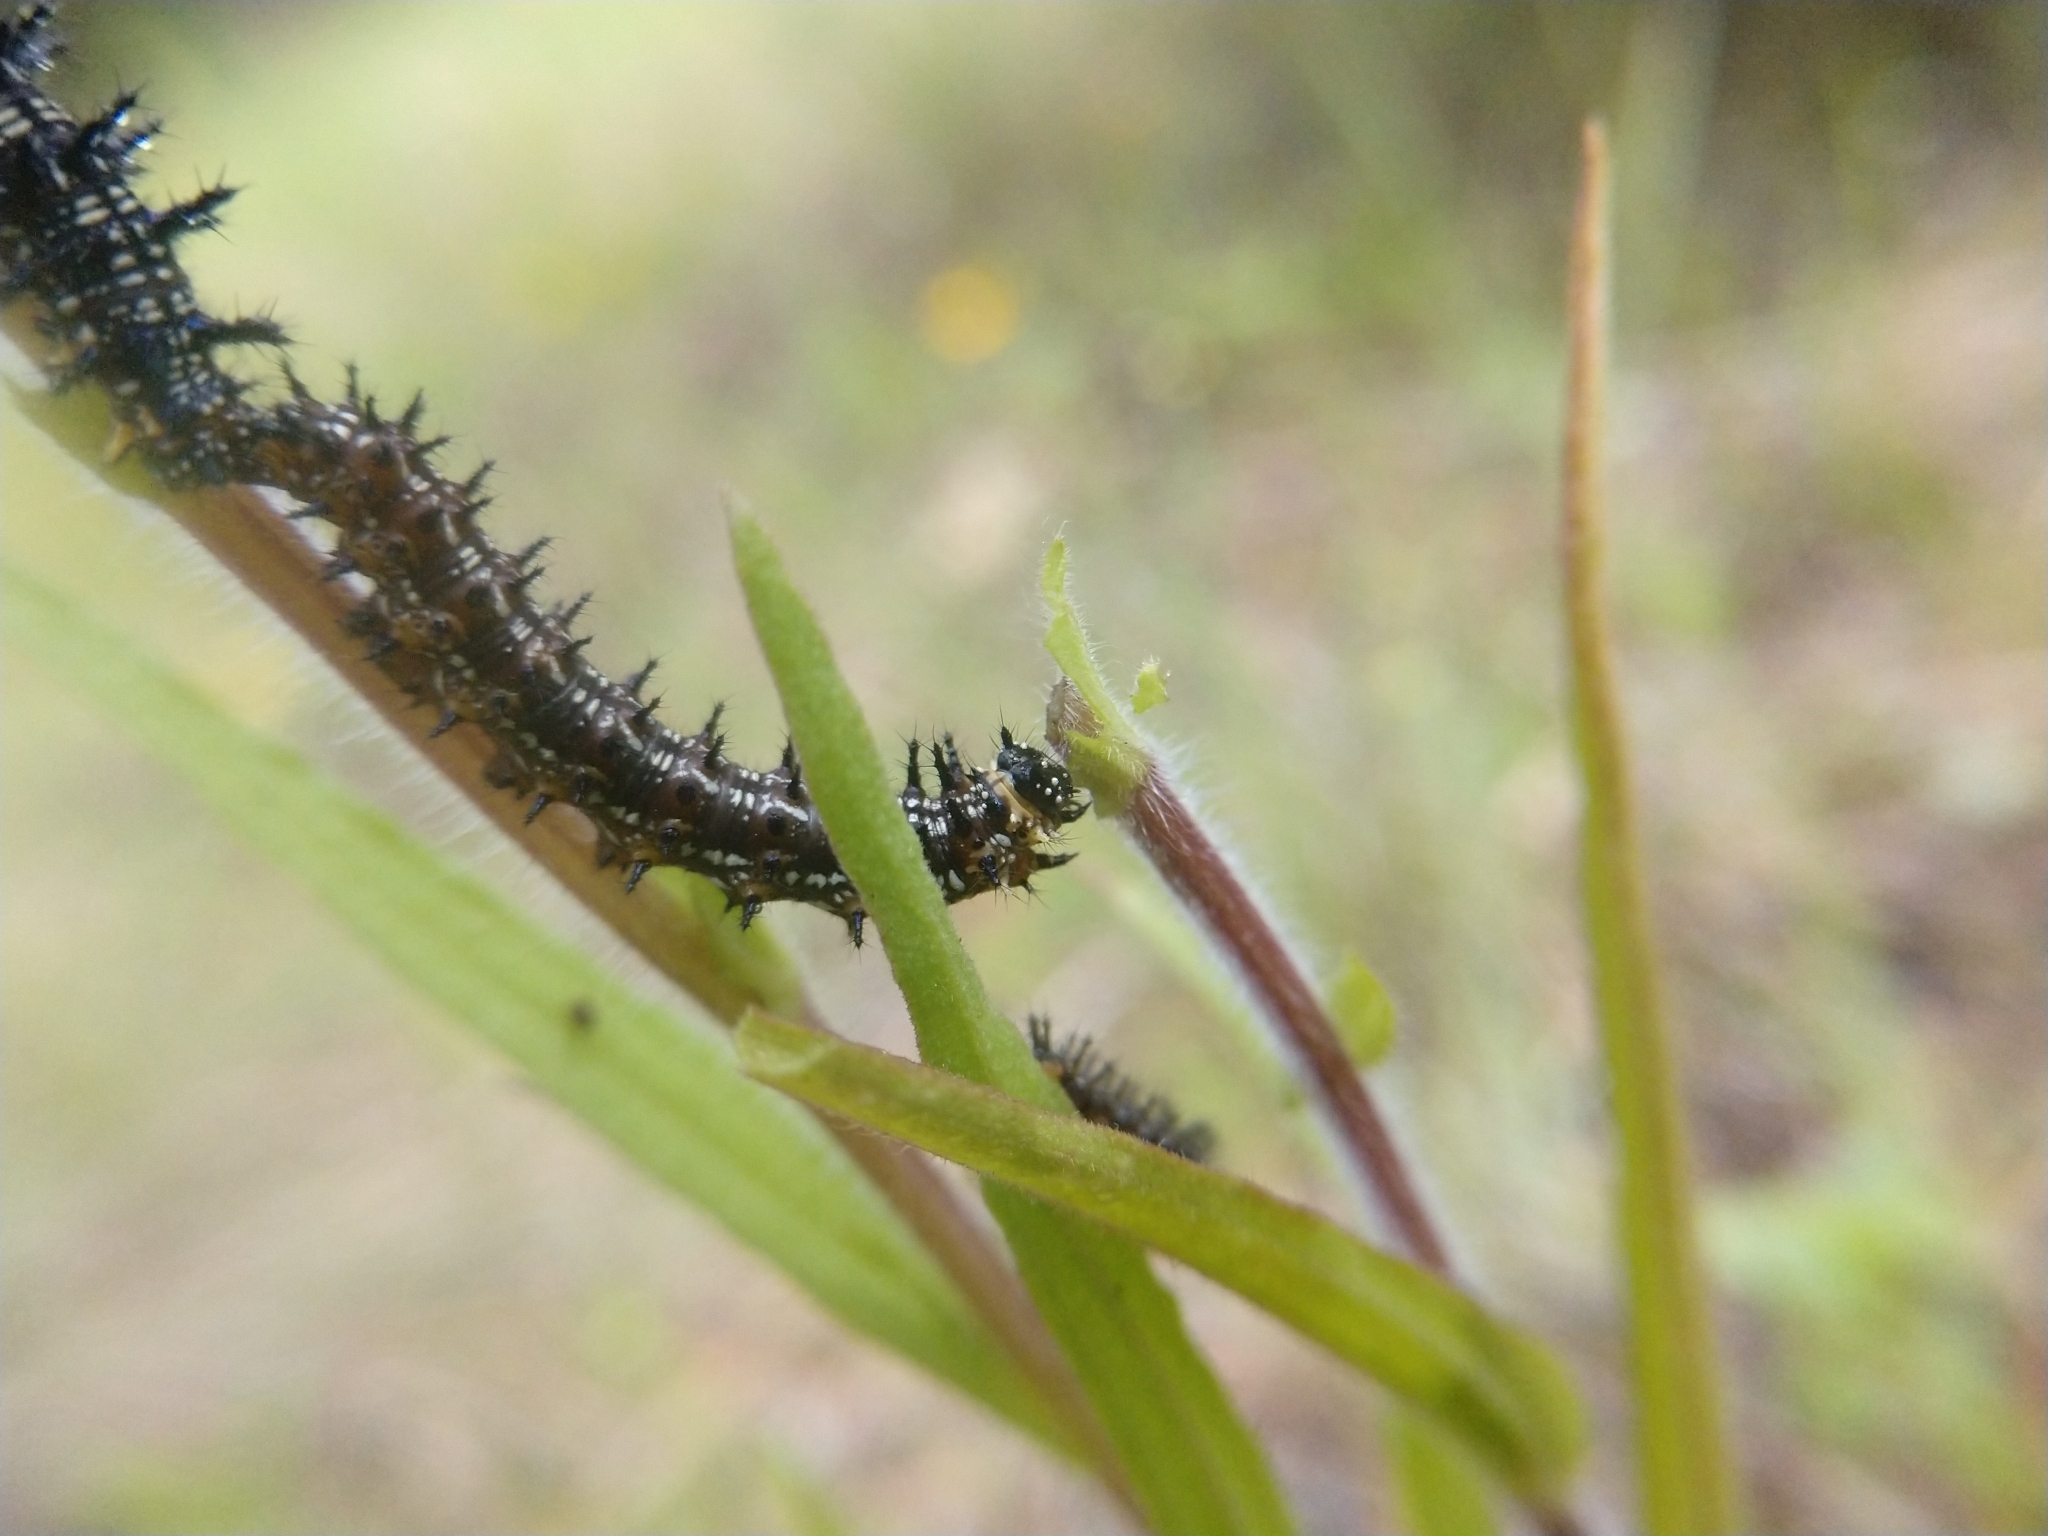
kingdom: Animalia
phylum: Arthropoda
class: Insecta
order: Lepidoptera
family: Nymphalidae
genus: Junonia
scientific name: Junonia coenia
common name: Common buckeye
